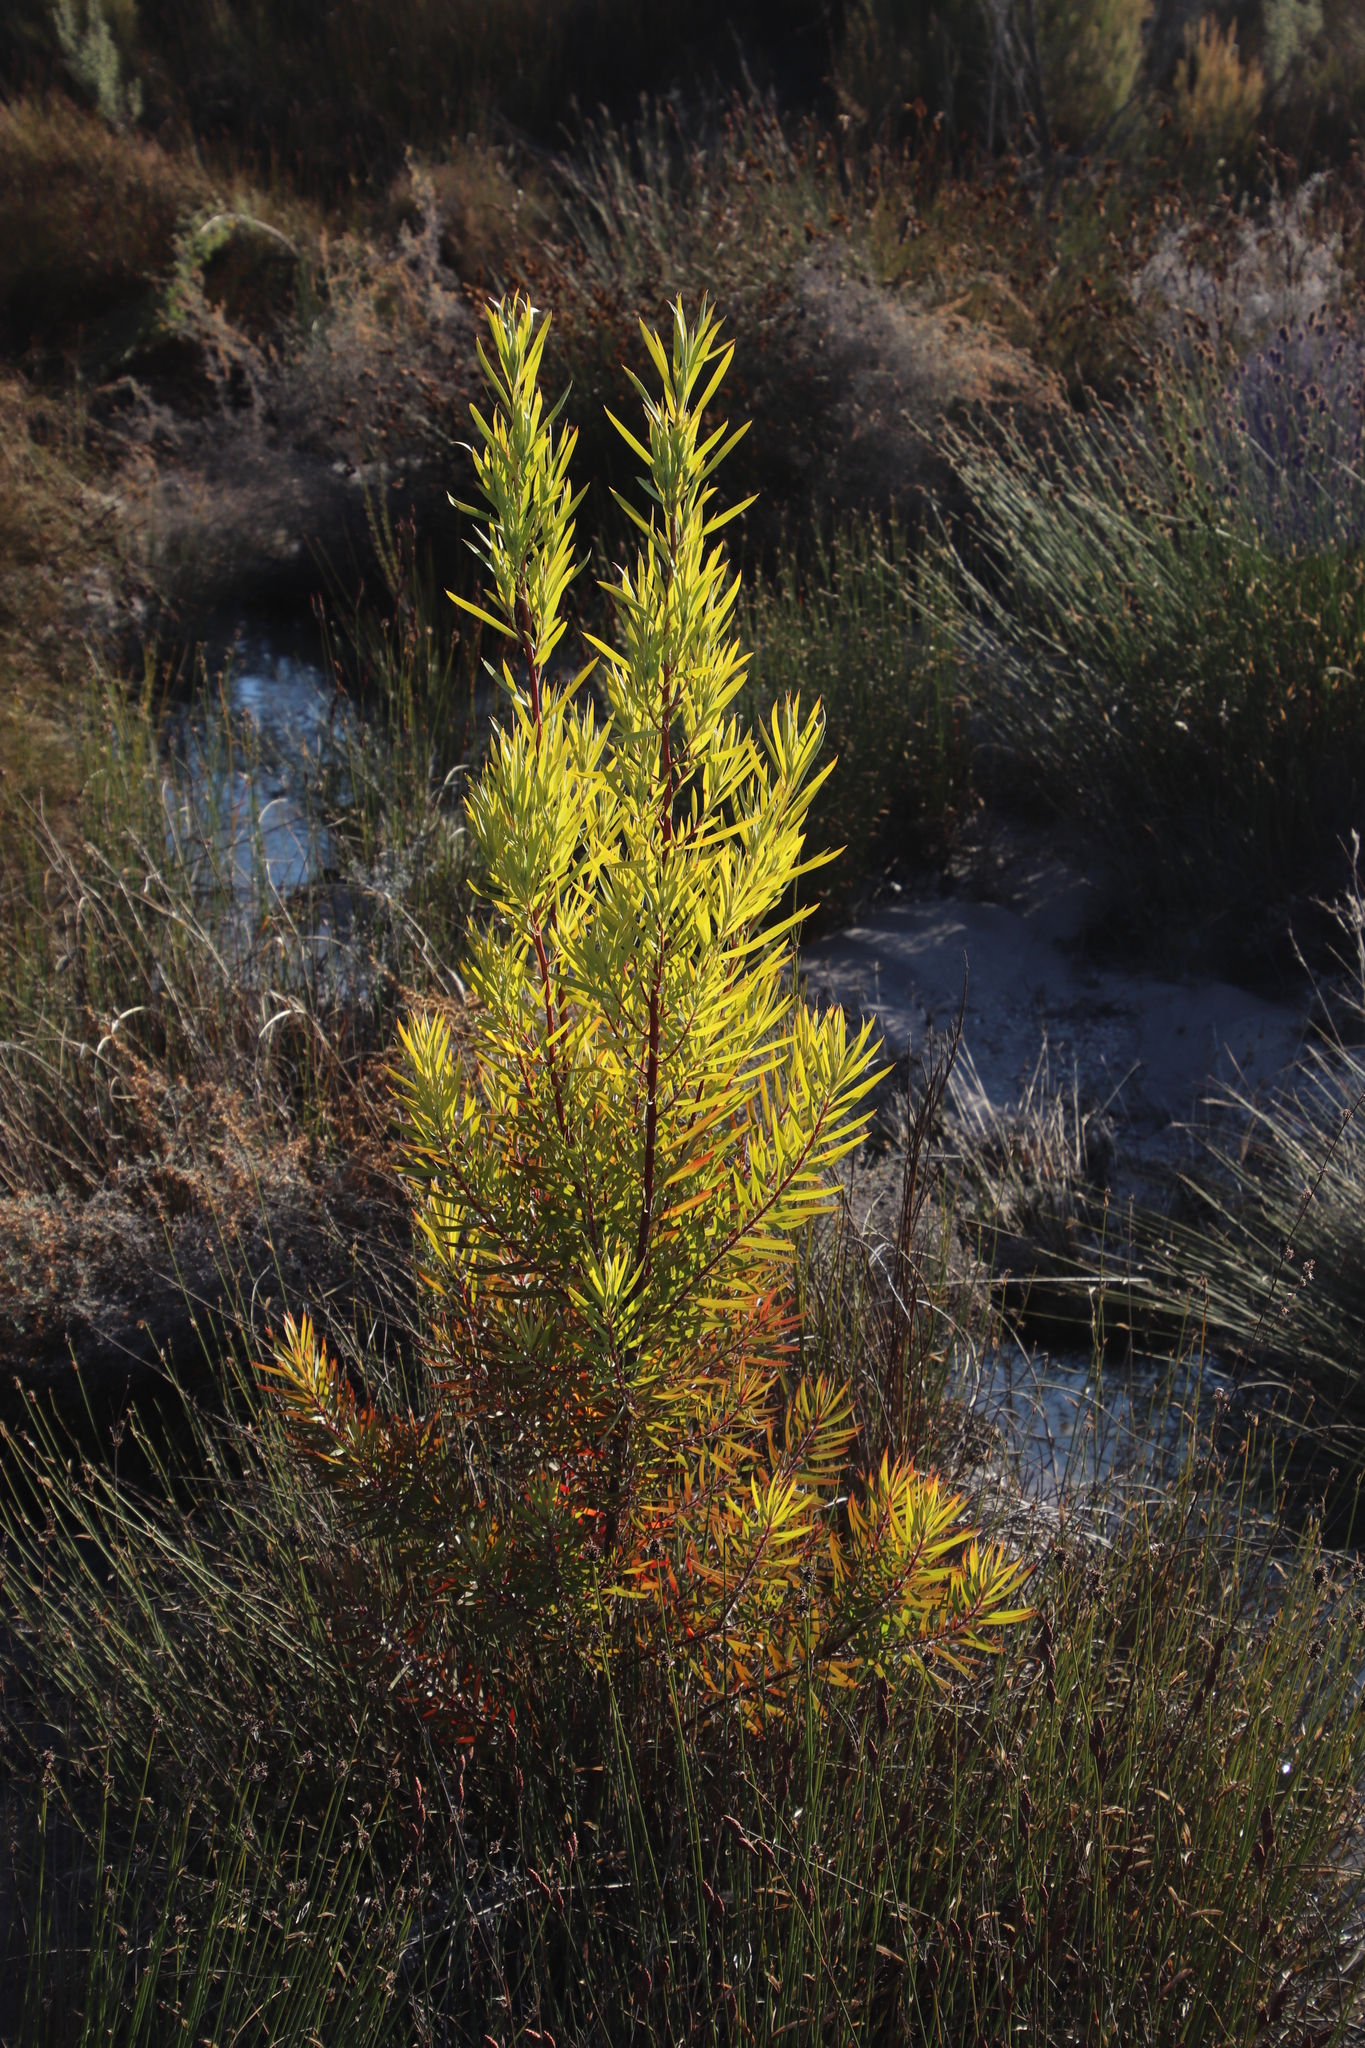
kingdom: Plantae
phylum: Tracheophyta
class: Magnoliopsida
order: Proteales
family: Proteaceae
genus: Leucadendron
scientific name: Leucadendron salicifolium
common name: Common stream conebush
